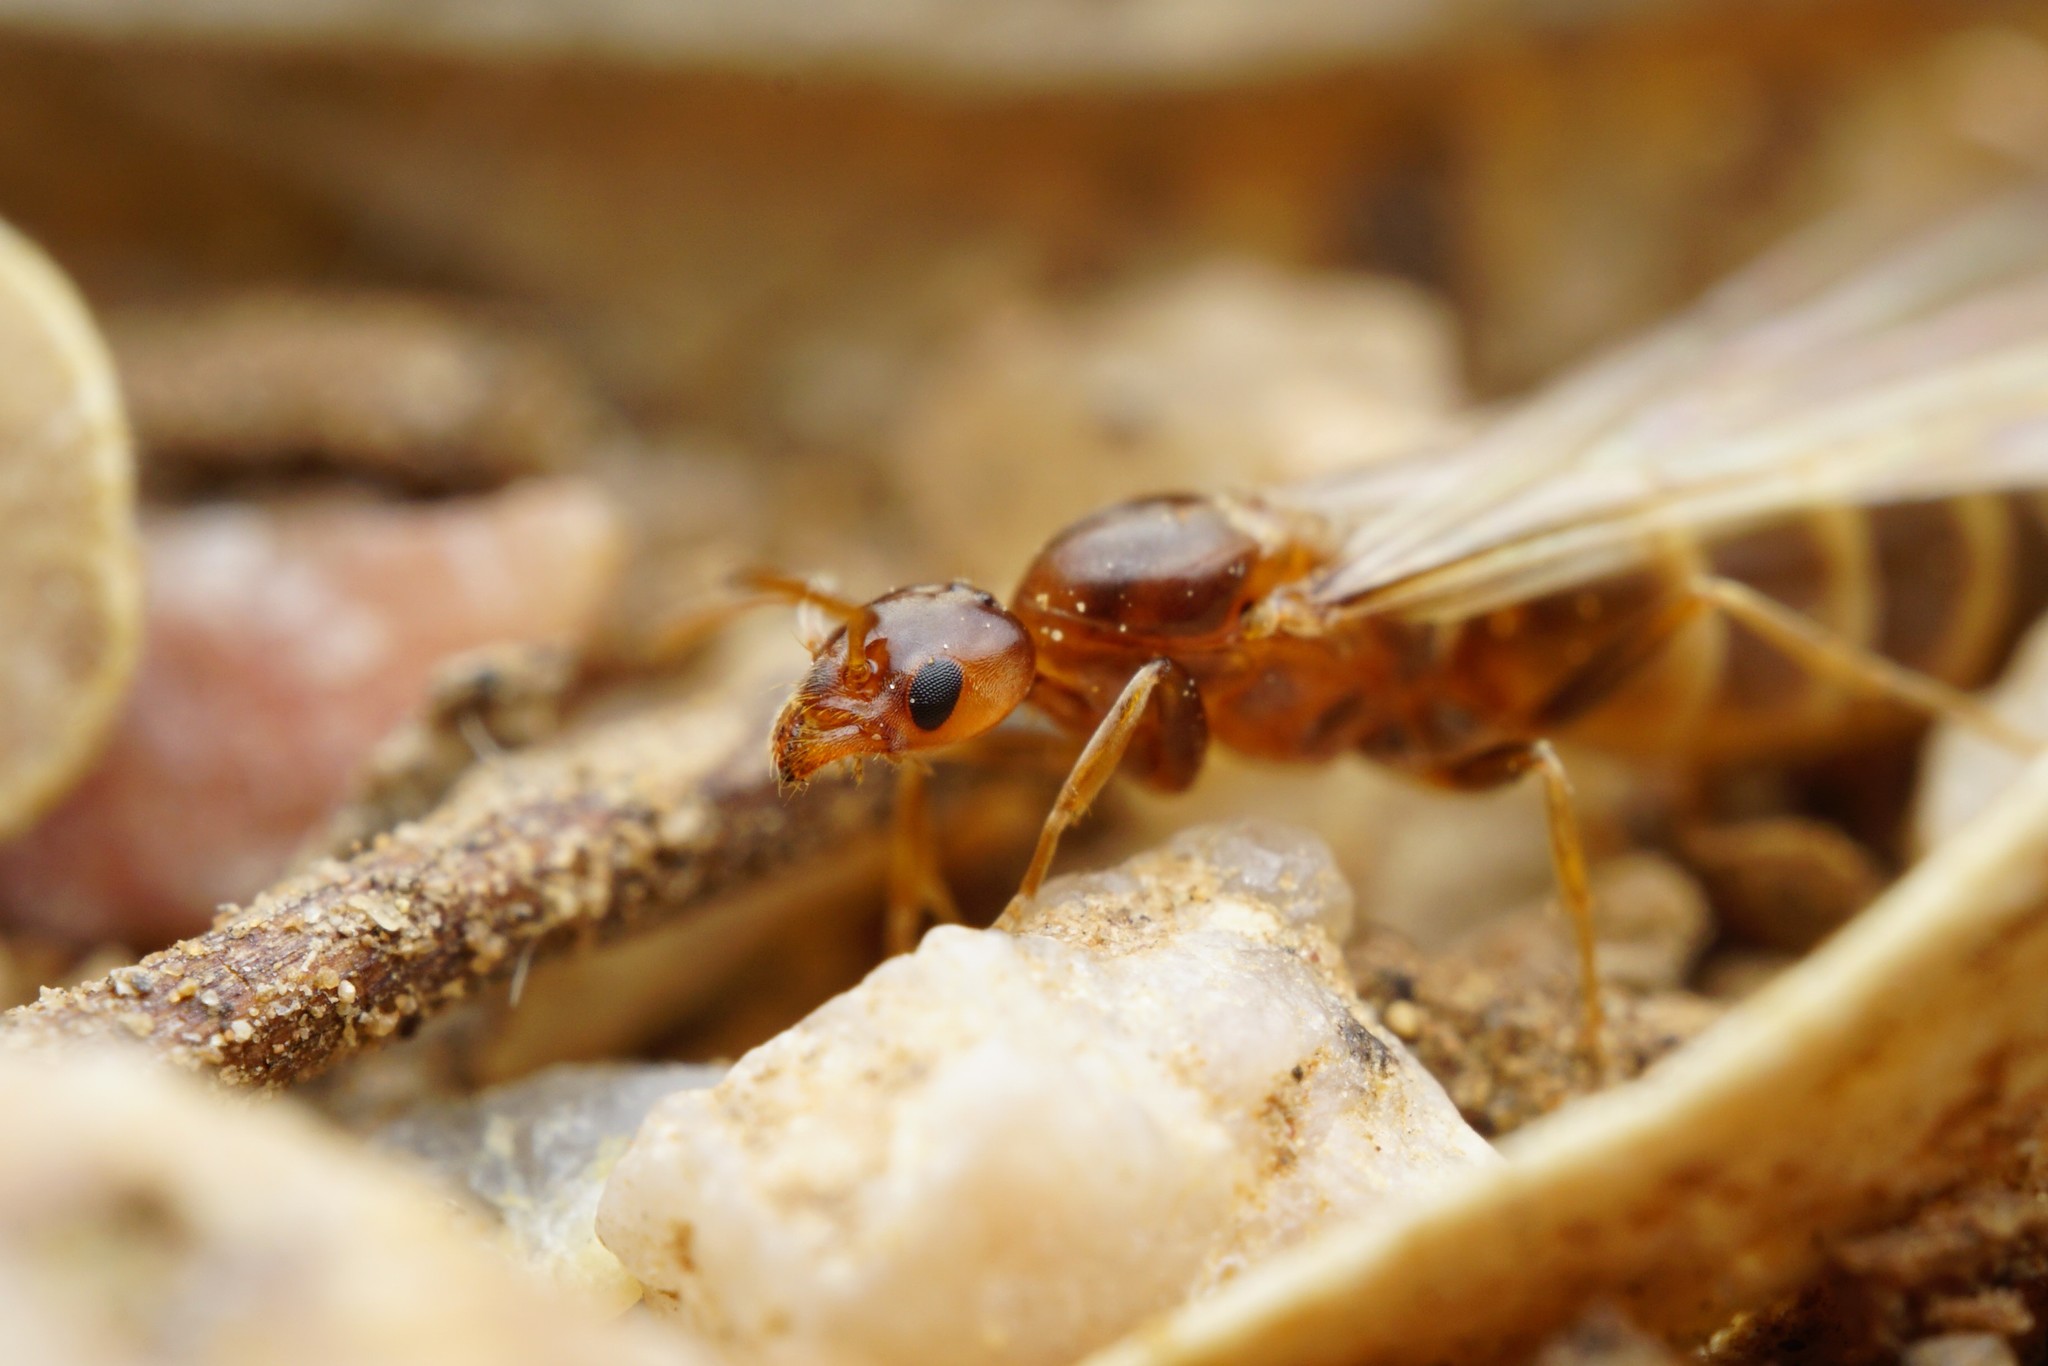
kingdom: Animalia
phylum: Arthropoda
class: Insecta
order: Hymenoptera
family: Formicidae
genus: Forelius
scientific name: Forelius pruinosus
